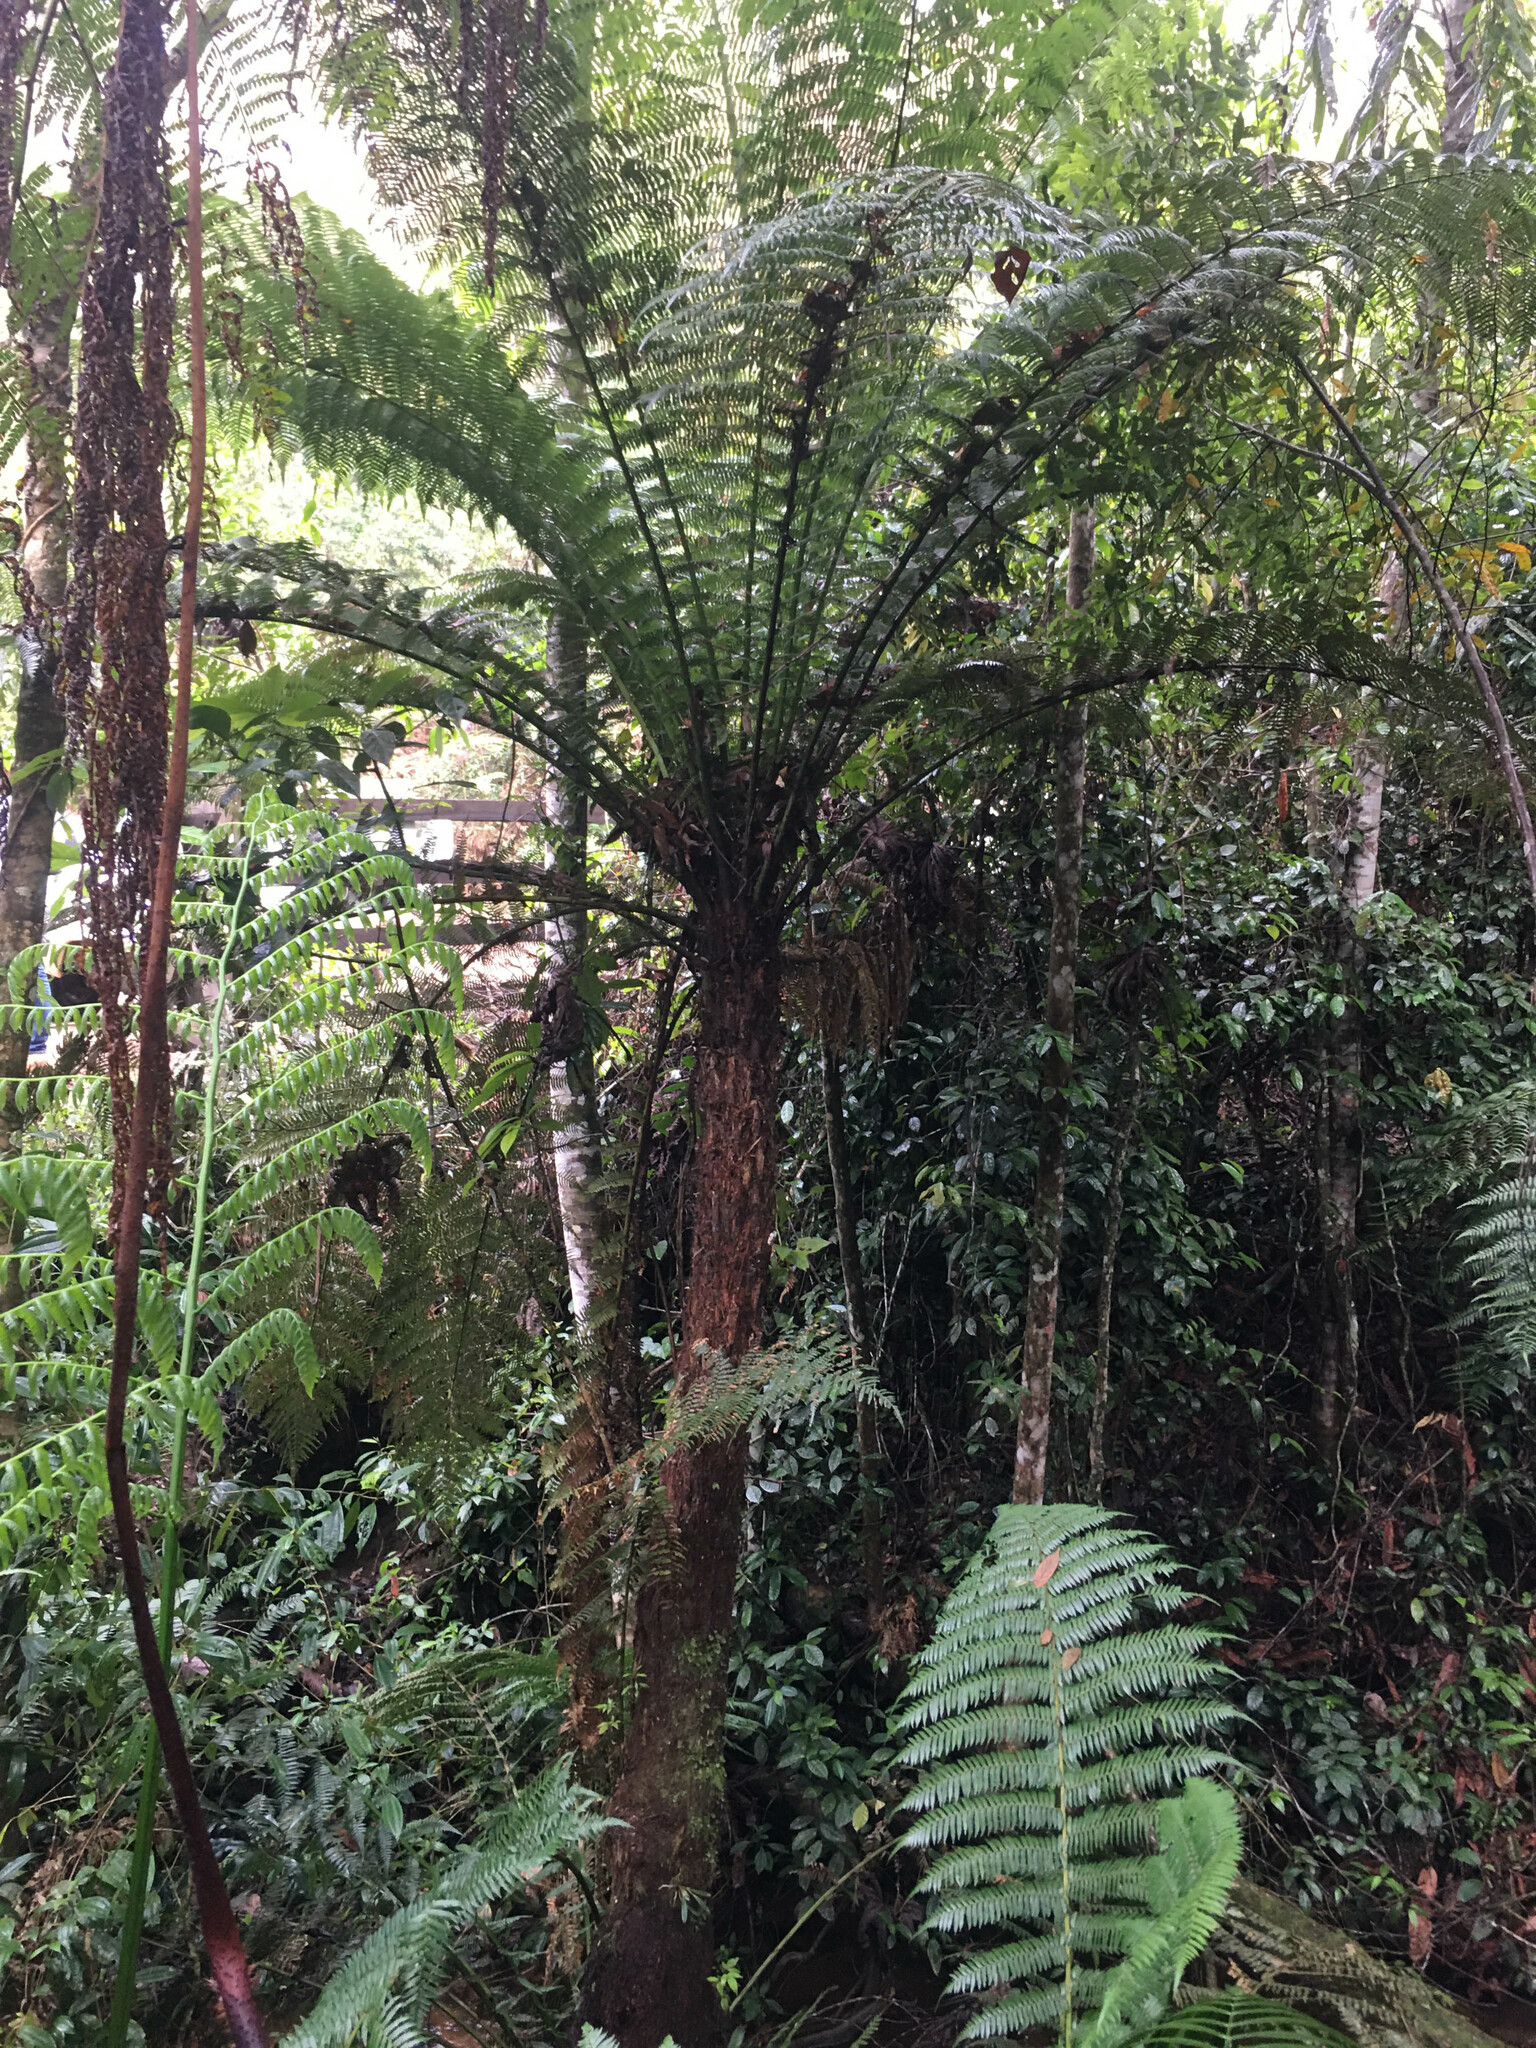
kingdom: Plantae
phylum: Tracheophyta
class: Polypodiopsida
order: Cyatheales
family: Dicksoniaceae
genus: Dicksonia
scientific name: Dicksonia sellowiana
